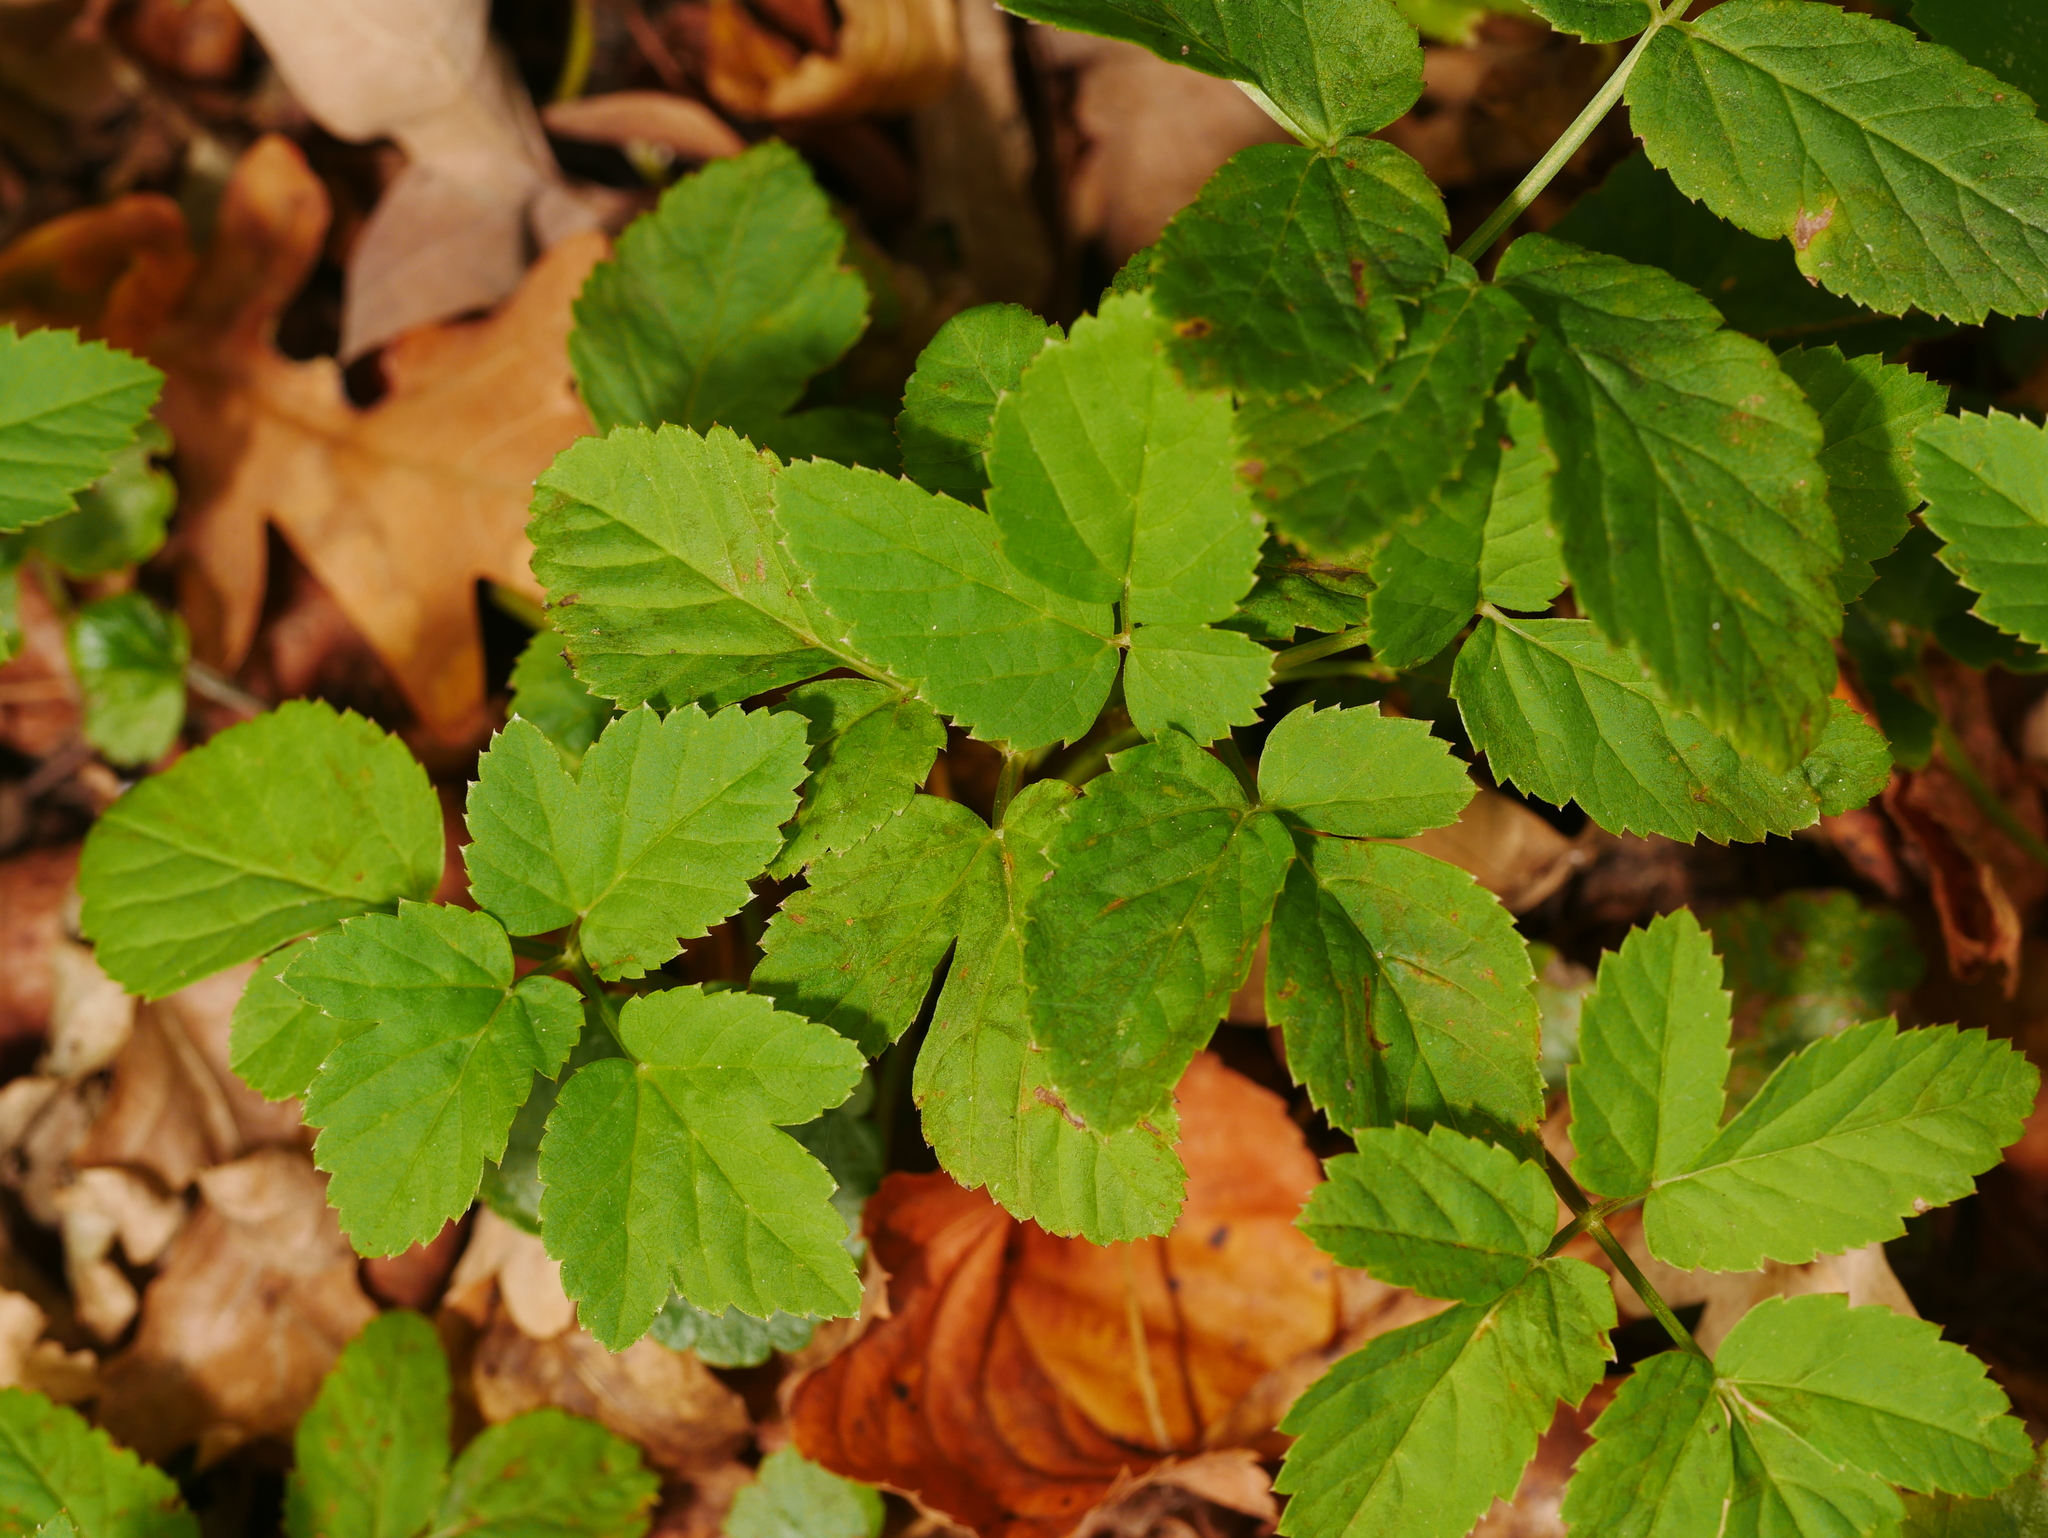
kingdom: Plantae
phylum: Tracheophyta
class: Magnoliopsida
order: Apiales
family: Apiaceae
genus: Aegopodium
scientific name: Aegopodium podagraria
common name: Ground-elder
